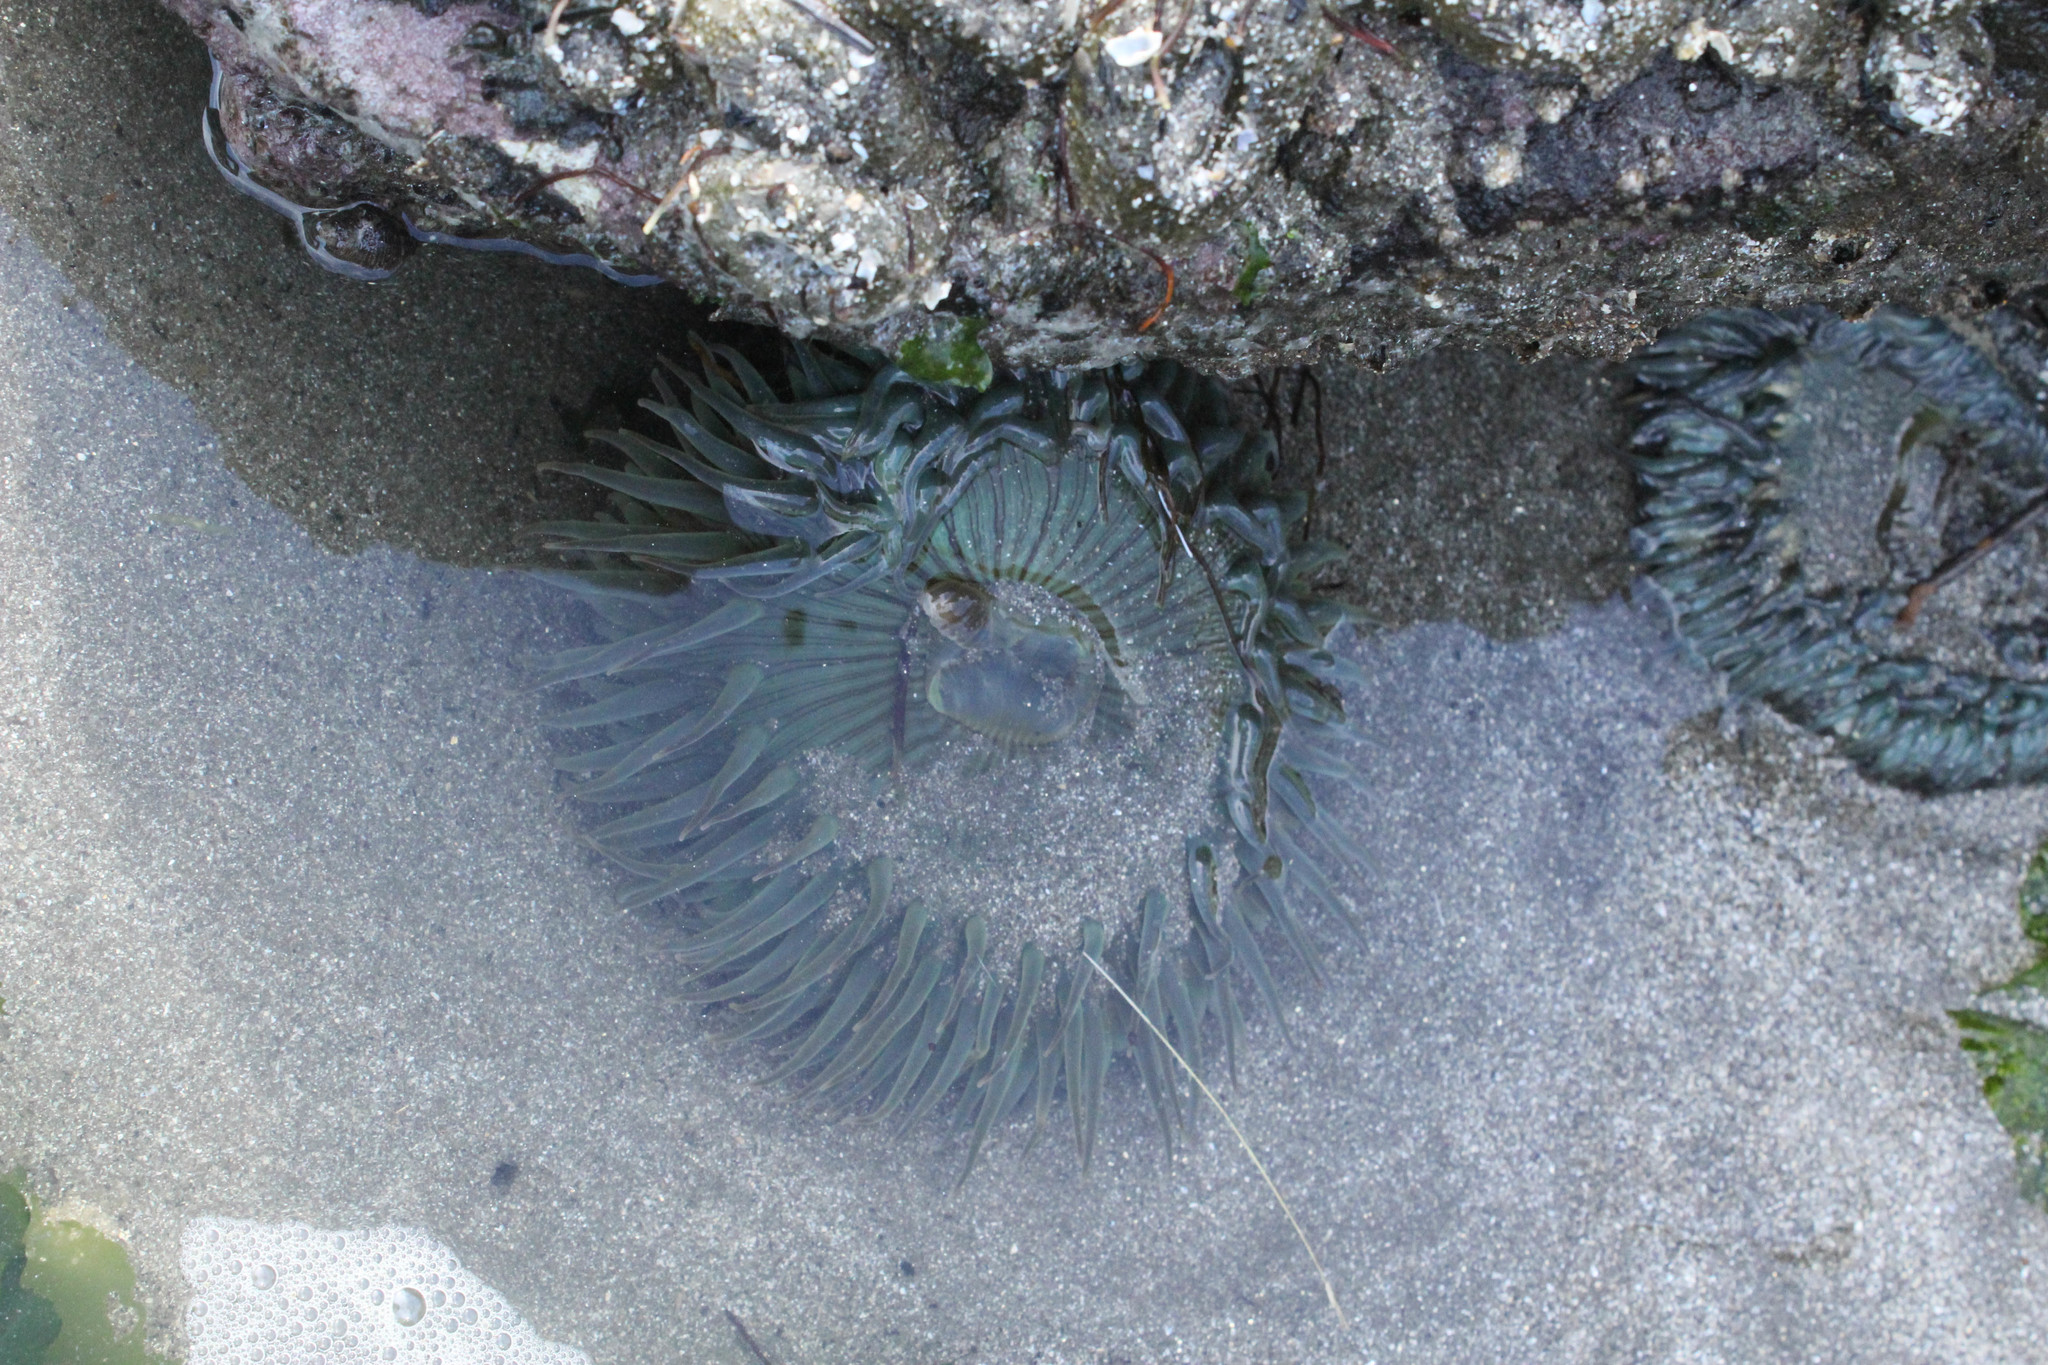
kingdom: Animalia
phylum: Cnidaria
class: Anthozoa
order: Actiniaria
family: Actiniidae
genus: Anthopleura
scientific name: Anthopleura sola
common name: Sun anemone
